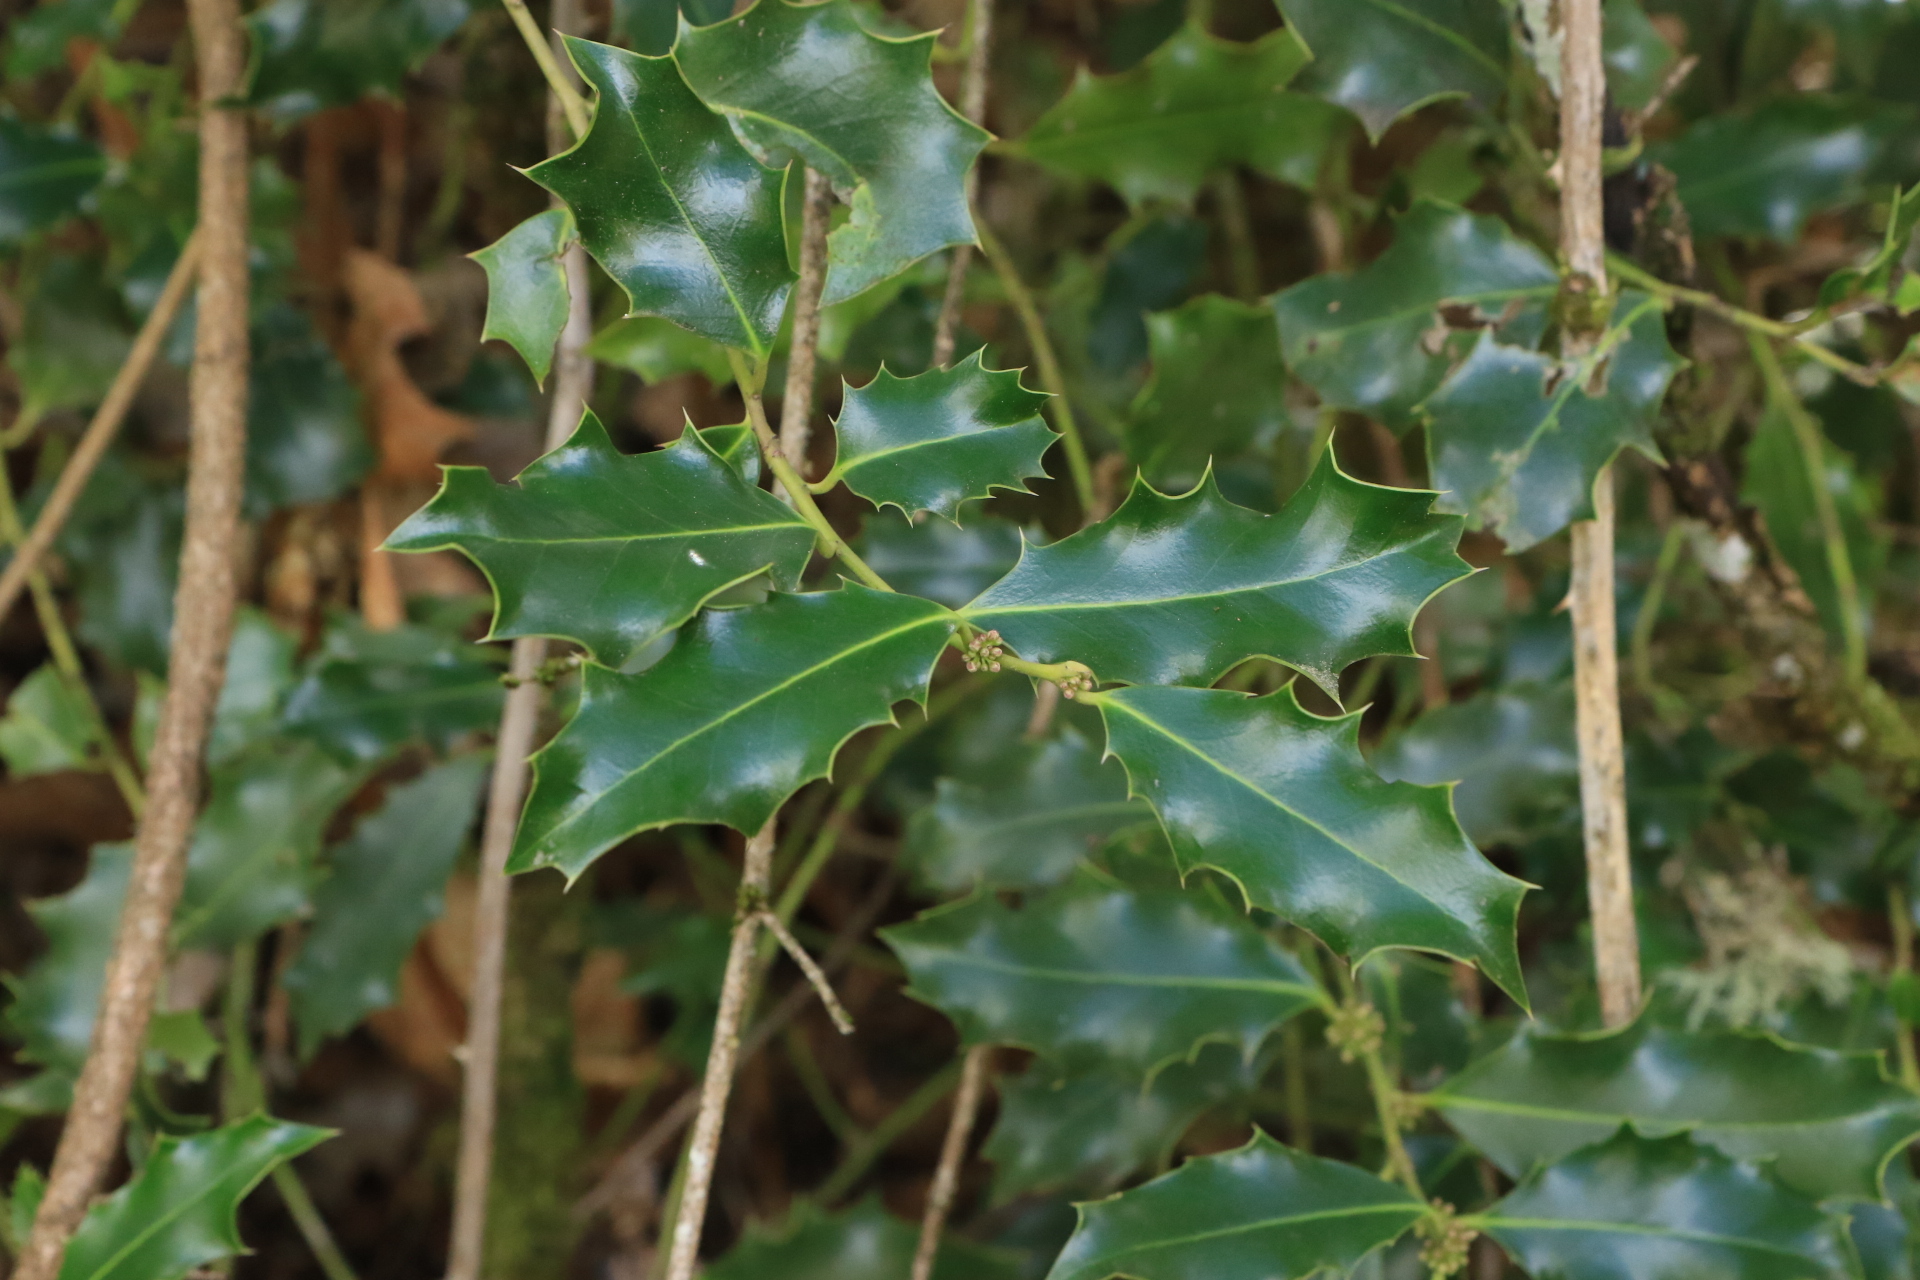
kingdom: Plantae
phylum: Tracheophyta
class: Magnoliopsida
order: Aquifoliales
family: Aquifoliaceae
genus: Ilex
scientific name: Ilex aquifolium
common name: English holly
